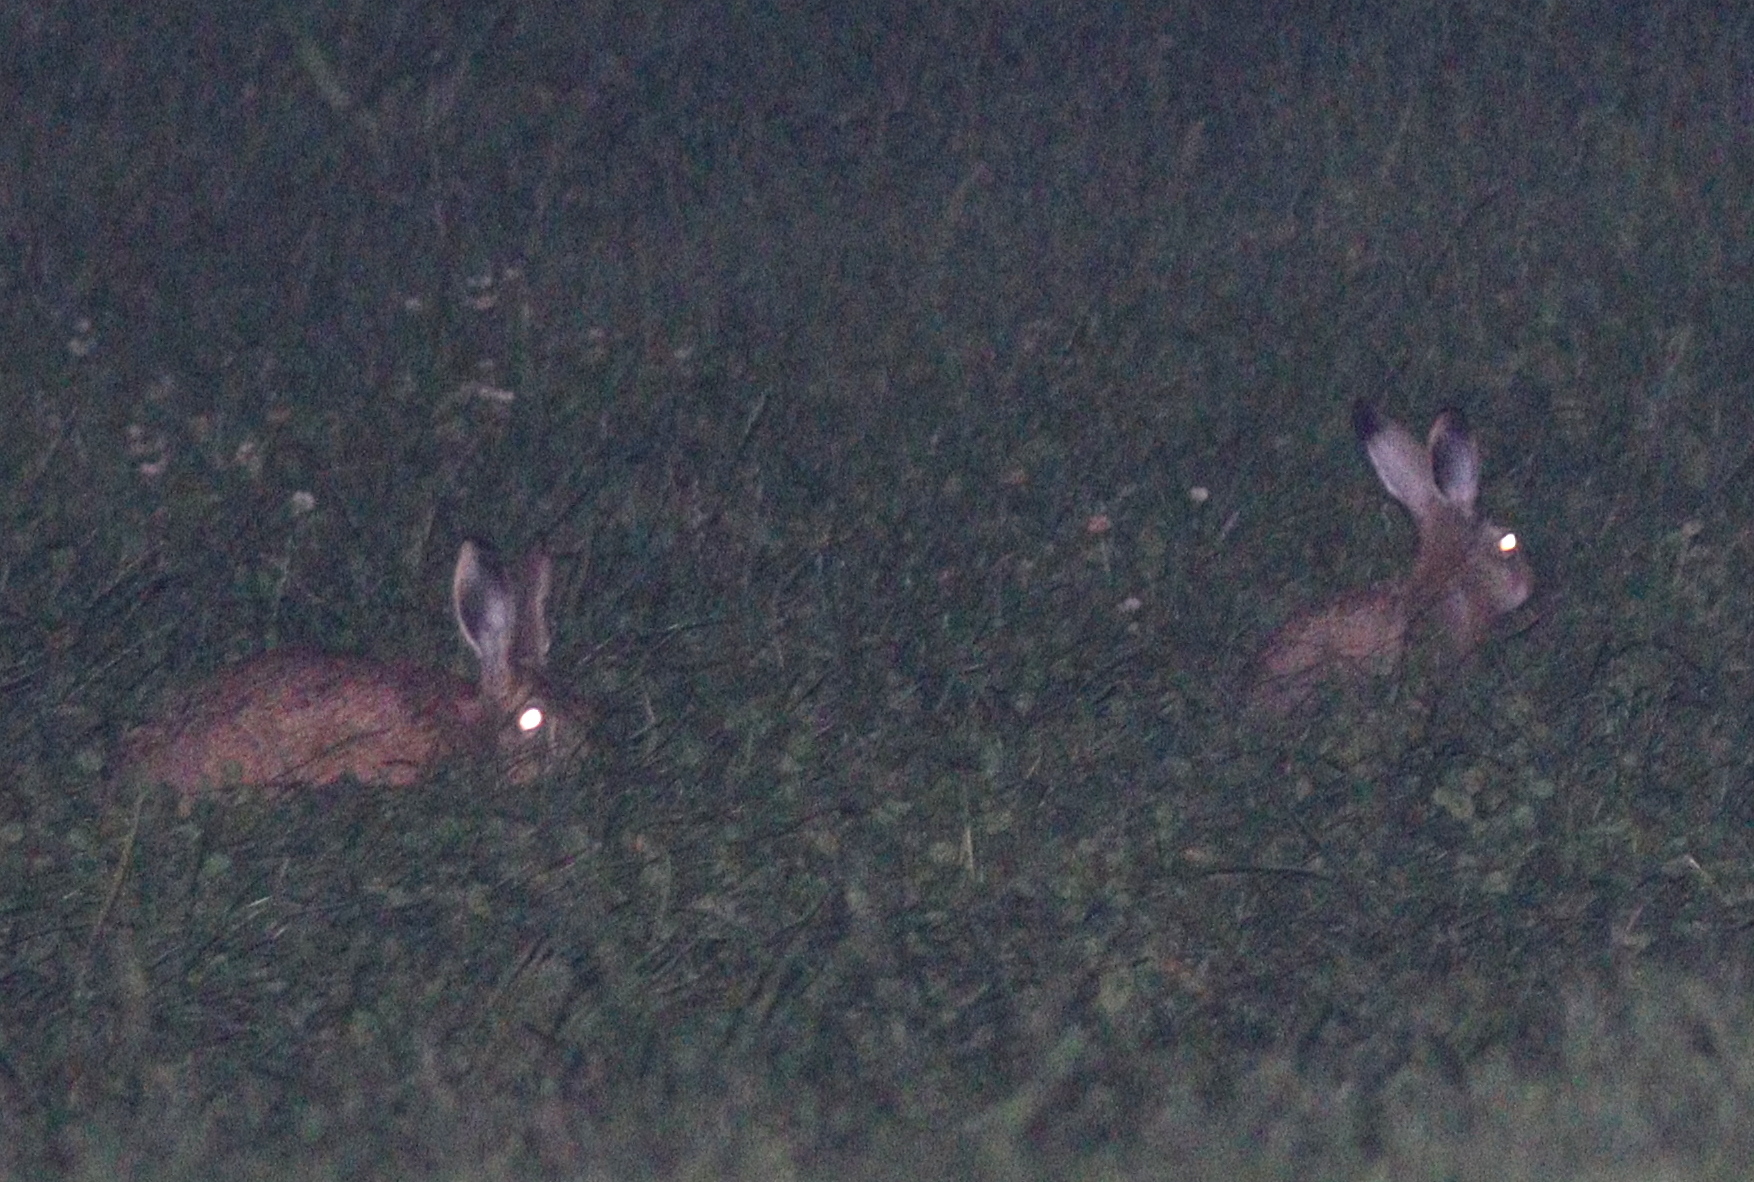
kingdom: Animalia
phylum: Chordata
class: Mammalia
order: Lagomorpha
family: Leporidae
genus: Lepus
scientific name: Lepus europaeus
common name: European hare
